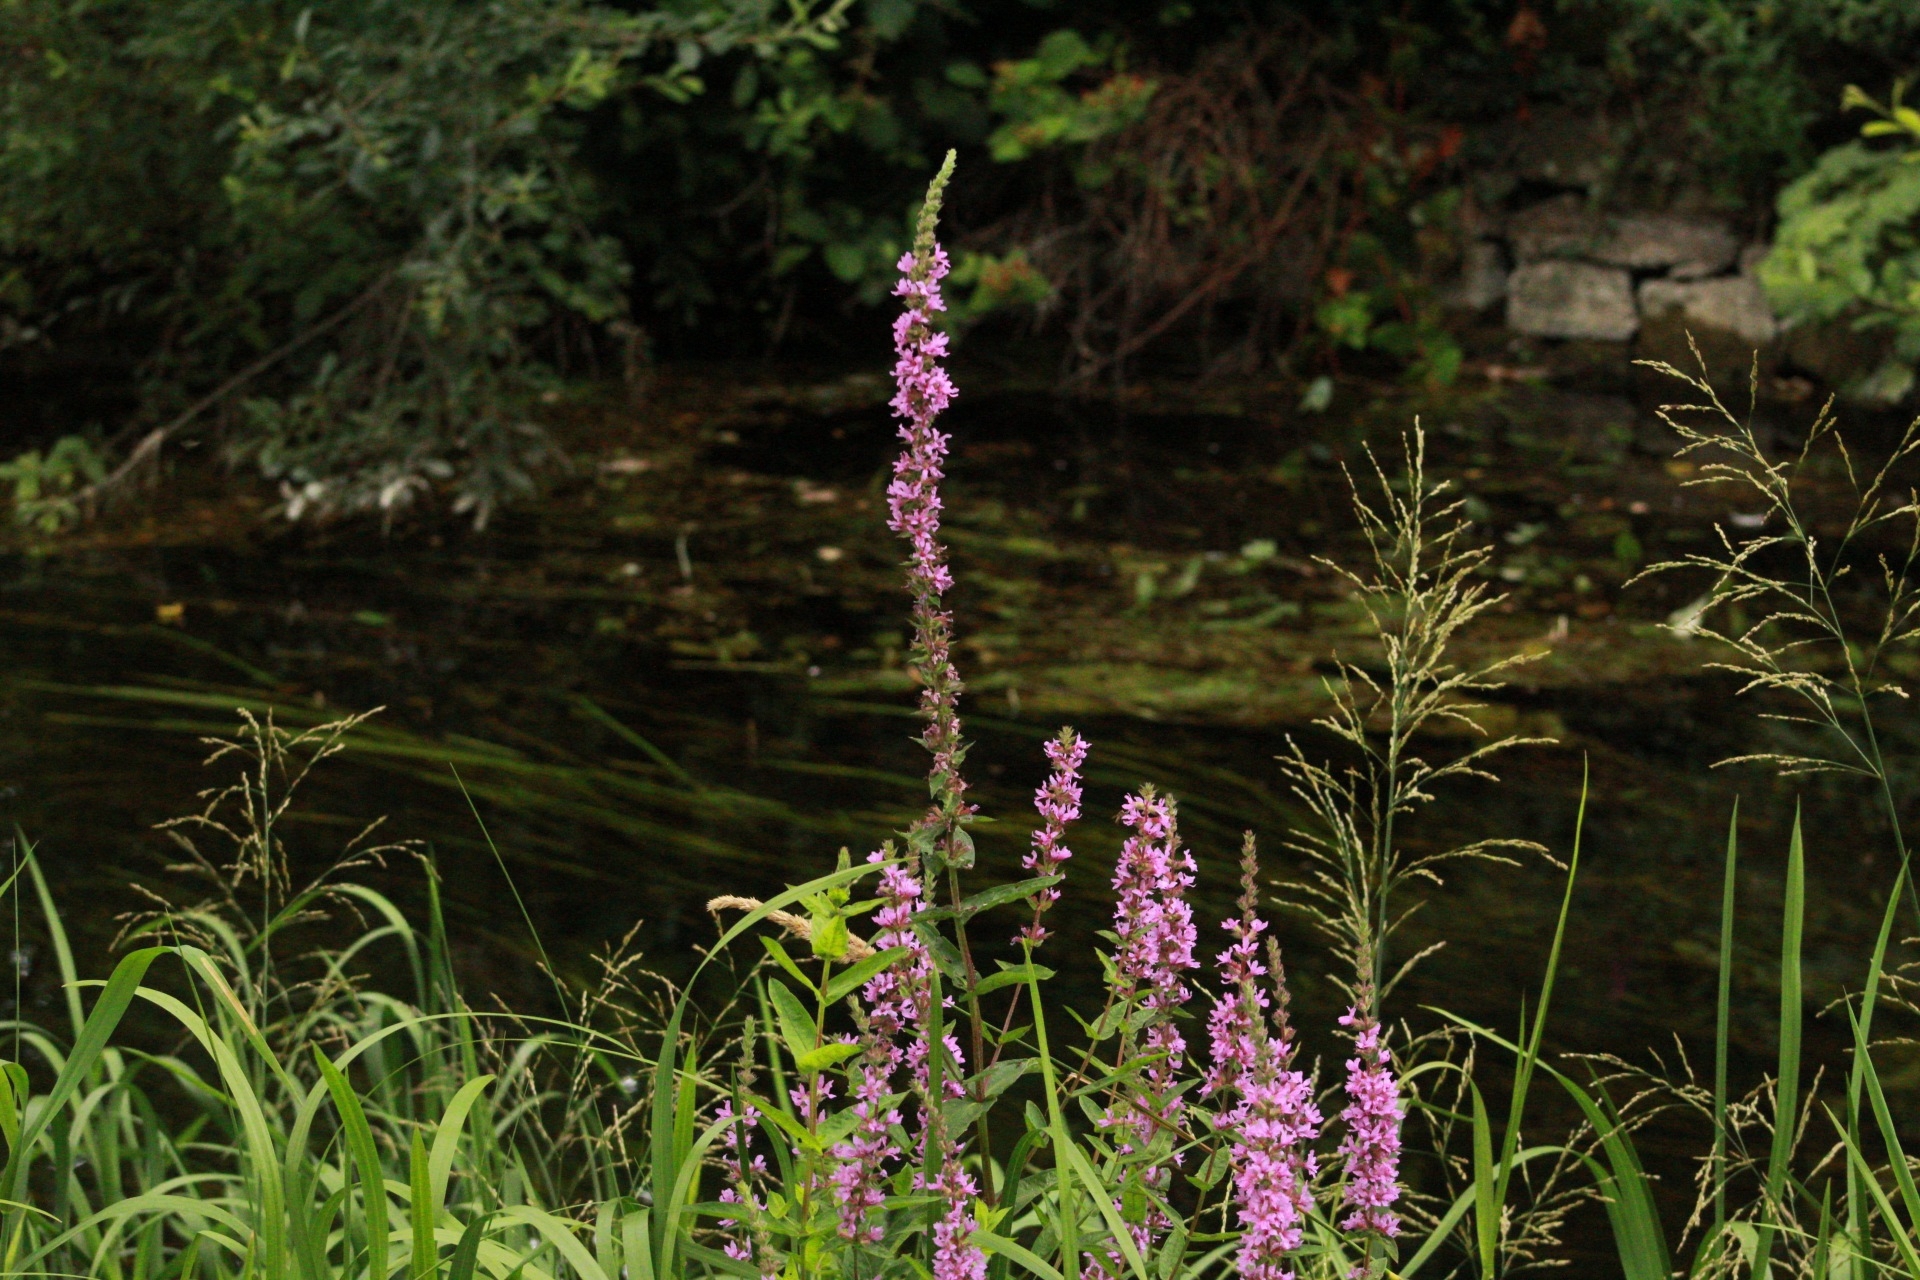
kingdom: Plantae
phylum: Tracheophyta
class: Magnoliopsida
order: Myrtales
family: Lythraceae
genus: Lythrum
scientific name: Lythrum salicaria
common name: Purple loosestrife
